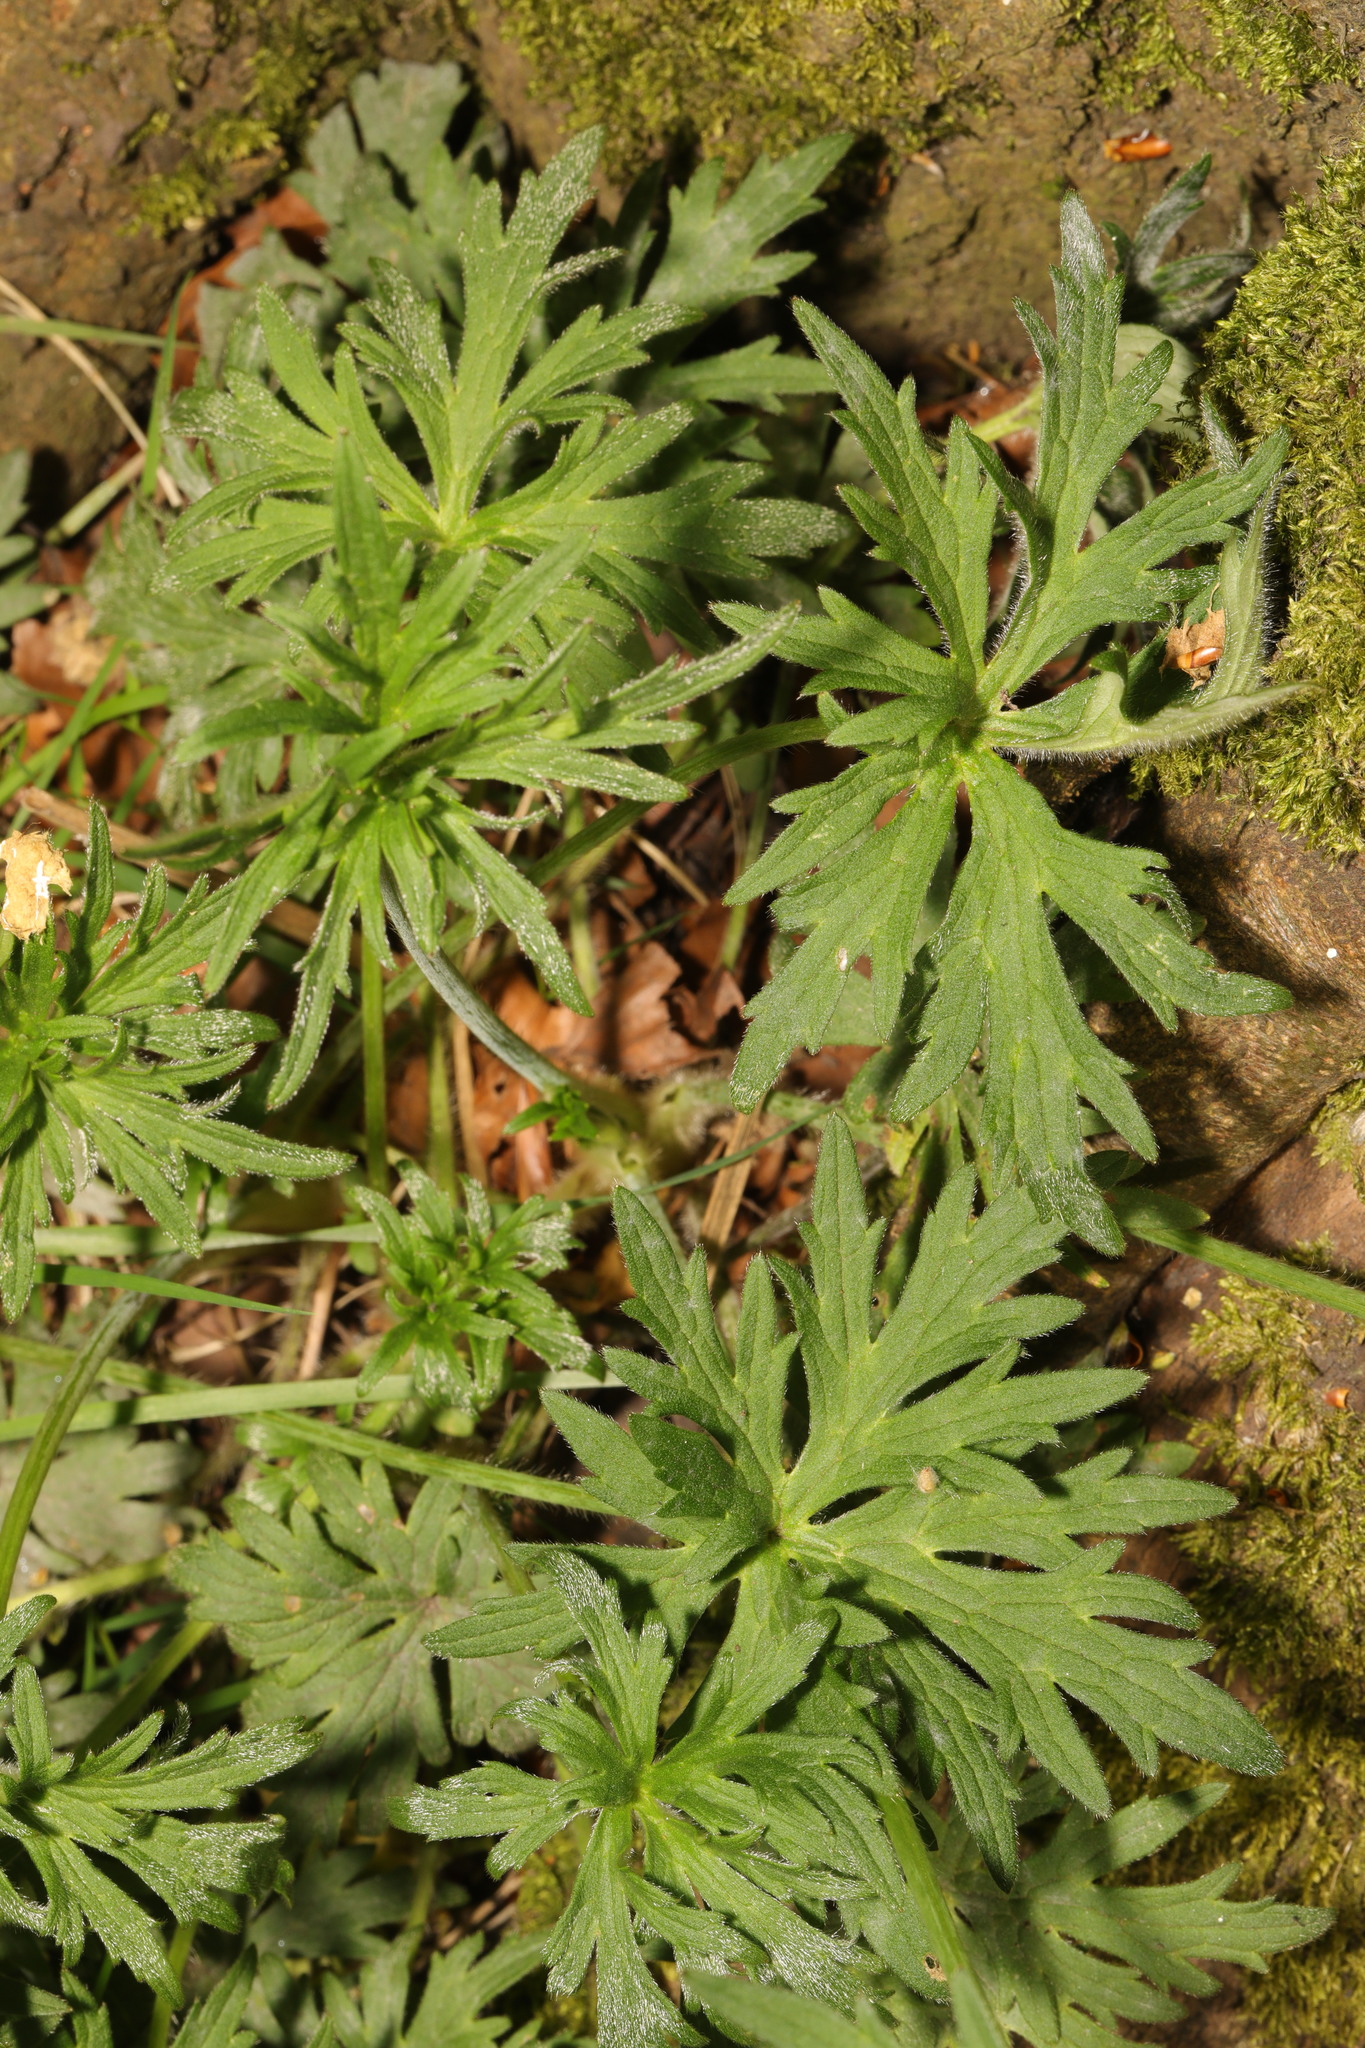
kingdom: Plantae
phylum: Tracheophyta
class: Magnoliopsida
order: Ranunculales
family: Ranunculaceae
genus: Ranunculus
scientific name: Ranunculus acris
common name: Meadow buttercup
